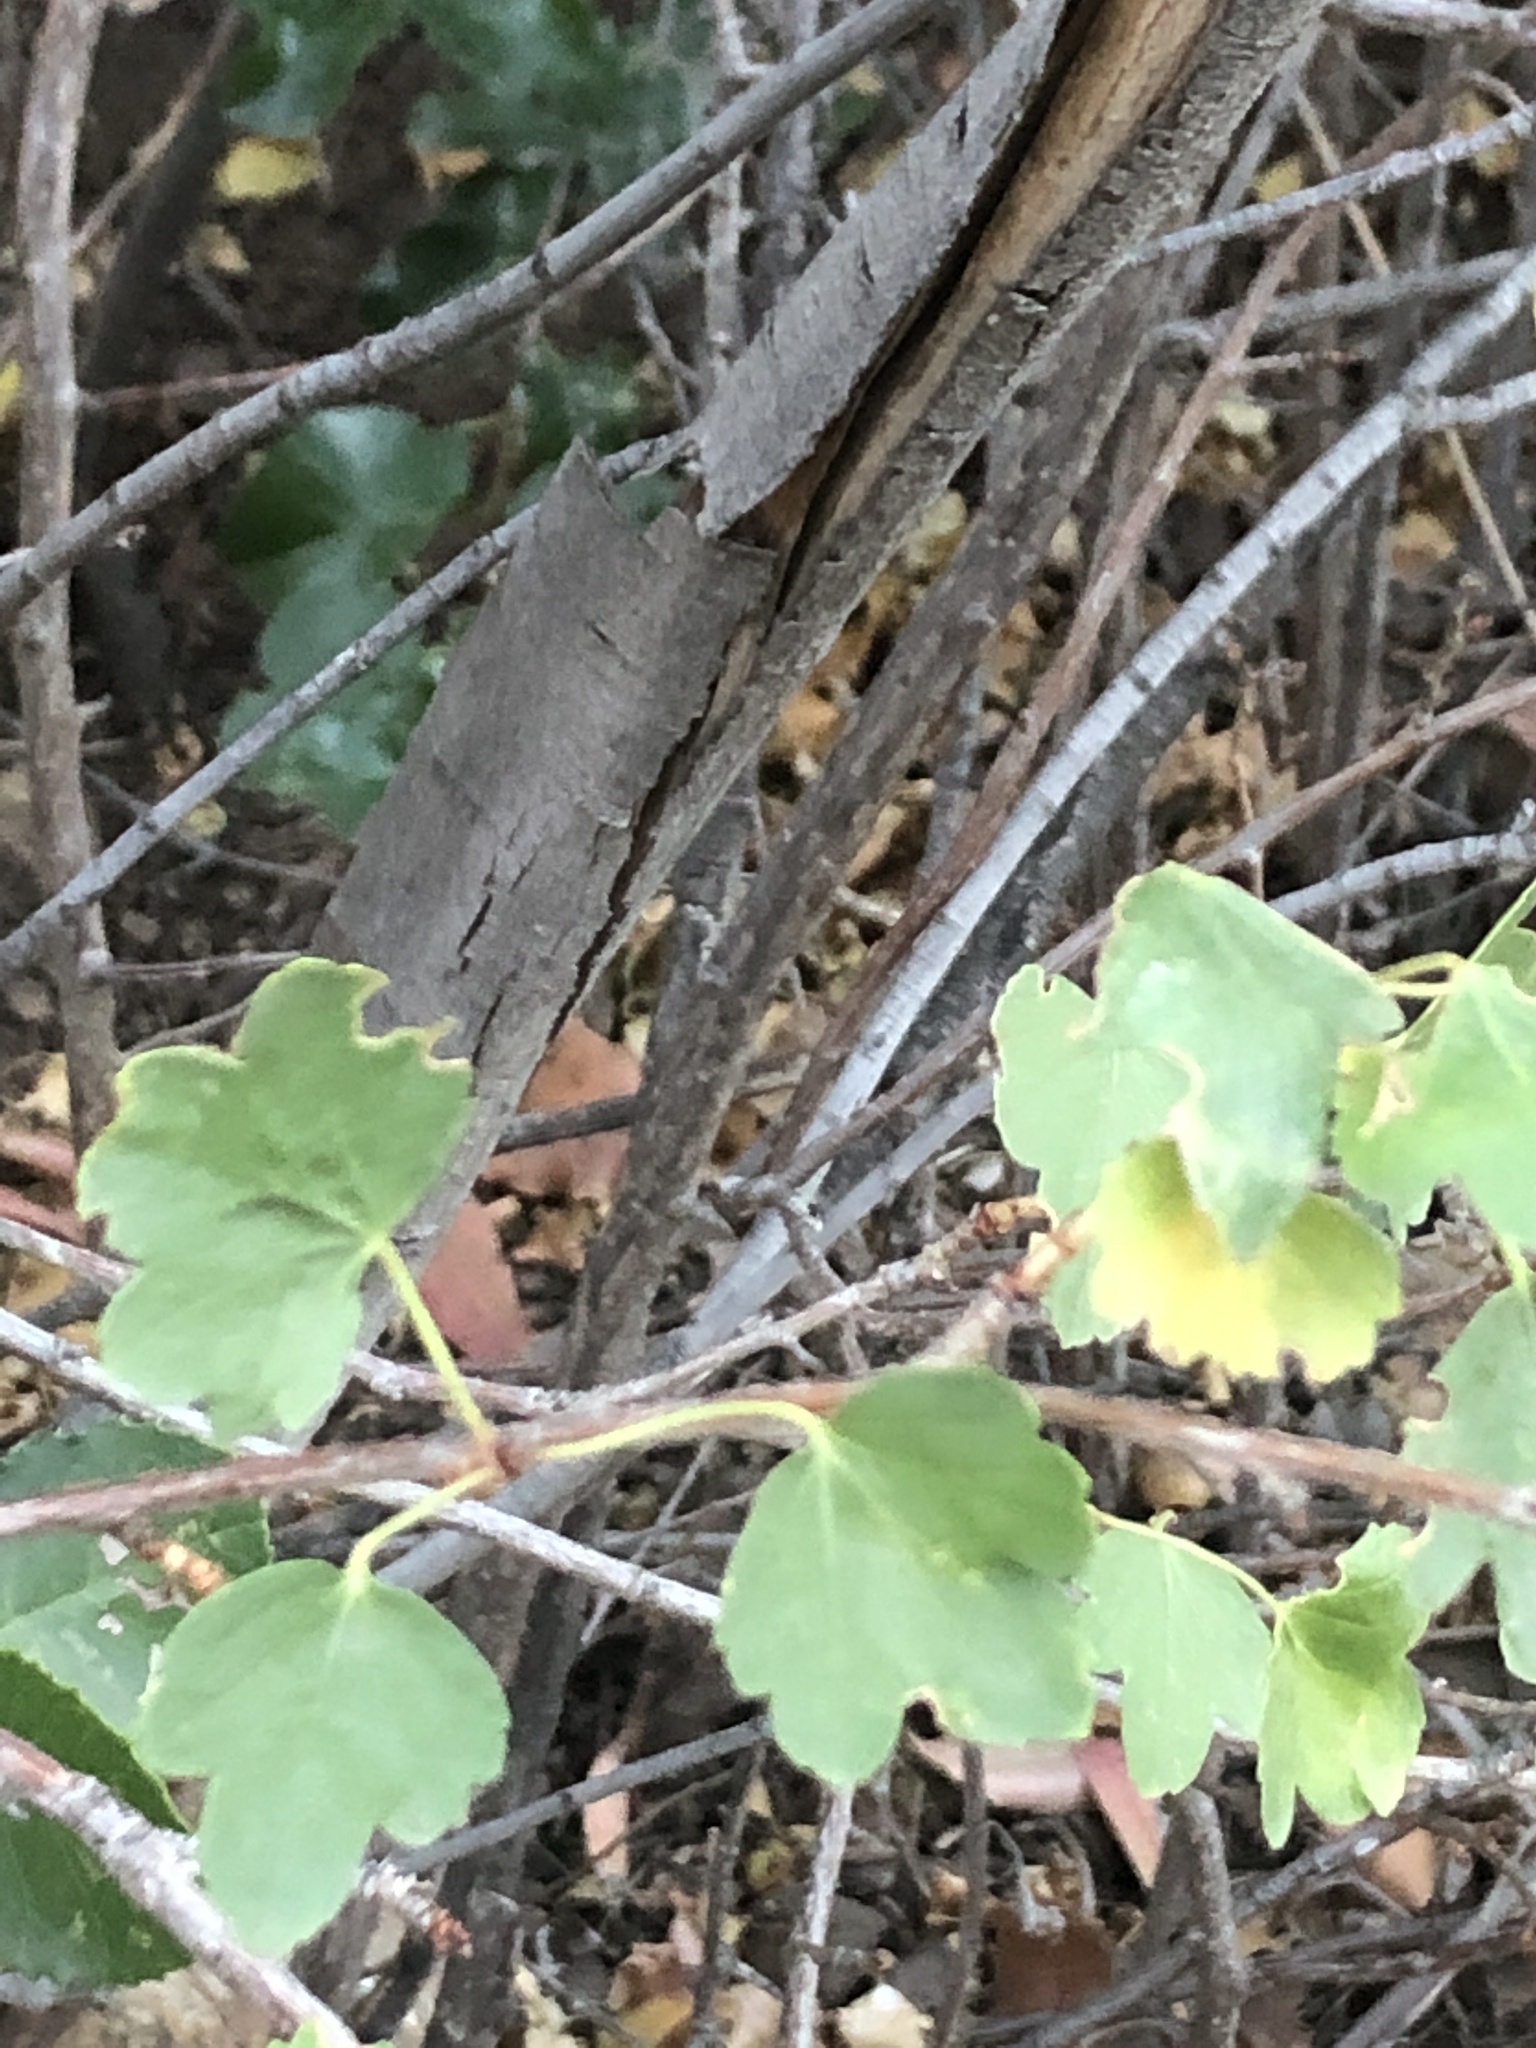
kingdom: Plantae
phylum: Tracheophyta
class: Magnoliopsida
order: Saxifragales
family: Grossulariaceae
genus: Ribes
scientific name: Ribes aureum
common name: Golden currant
